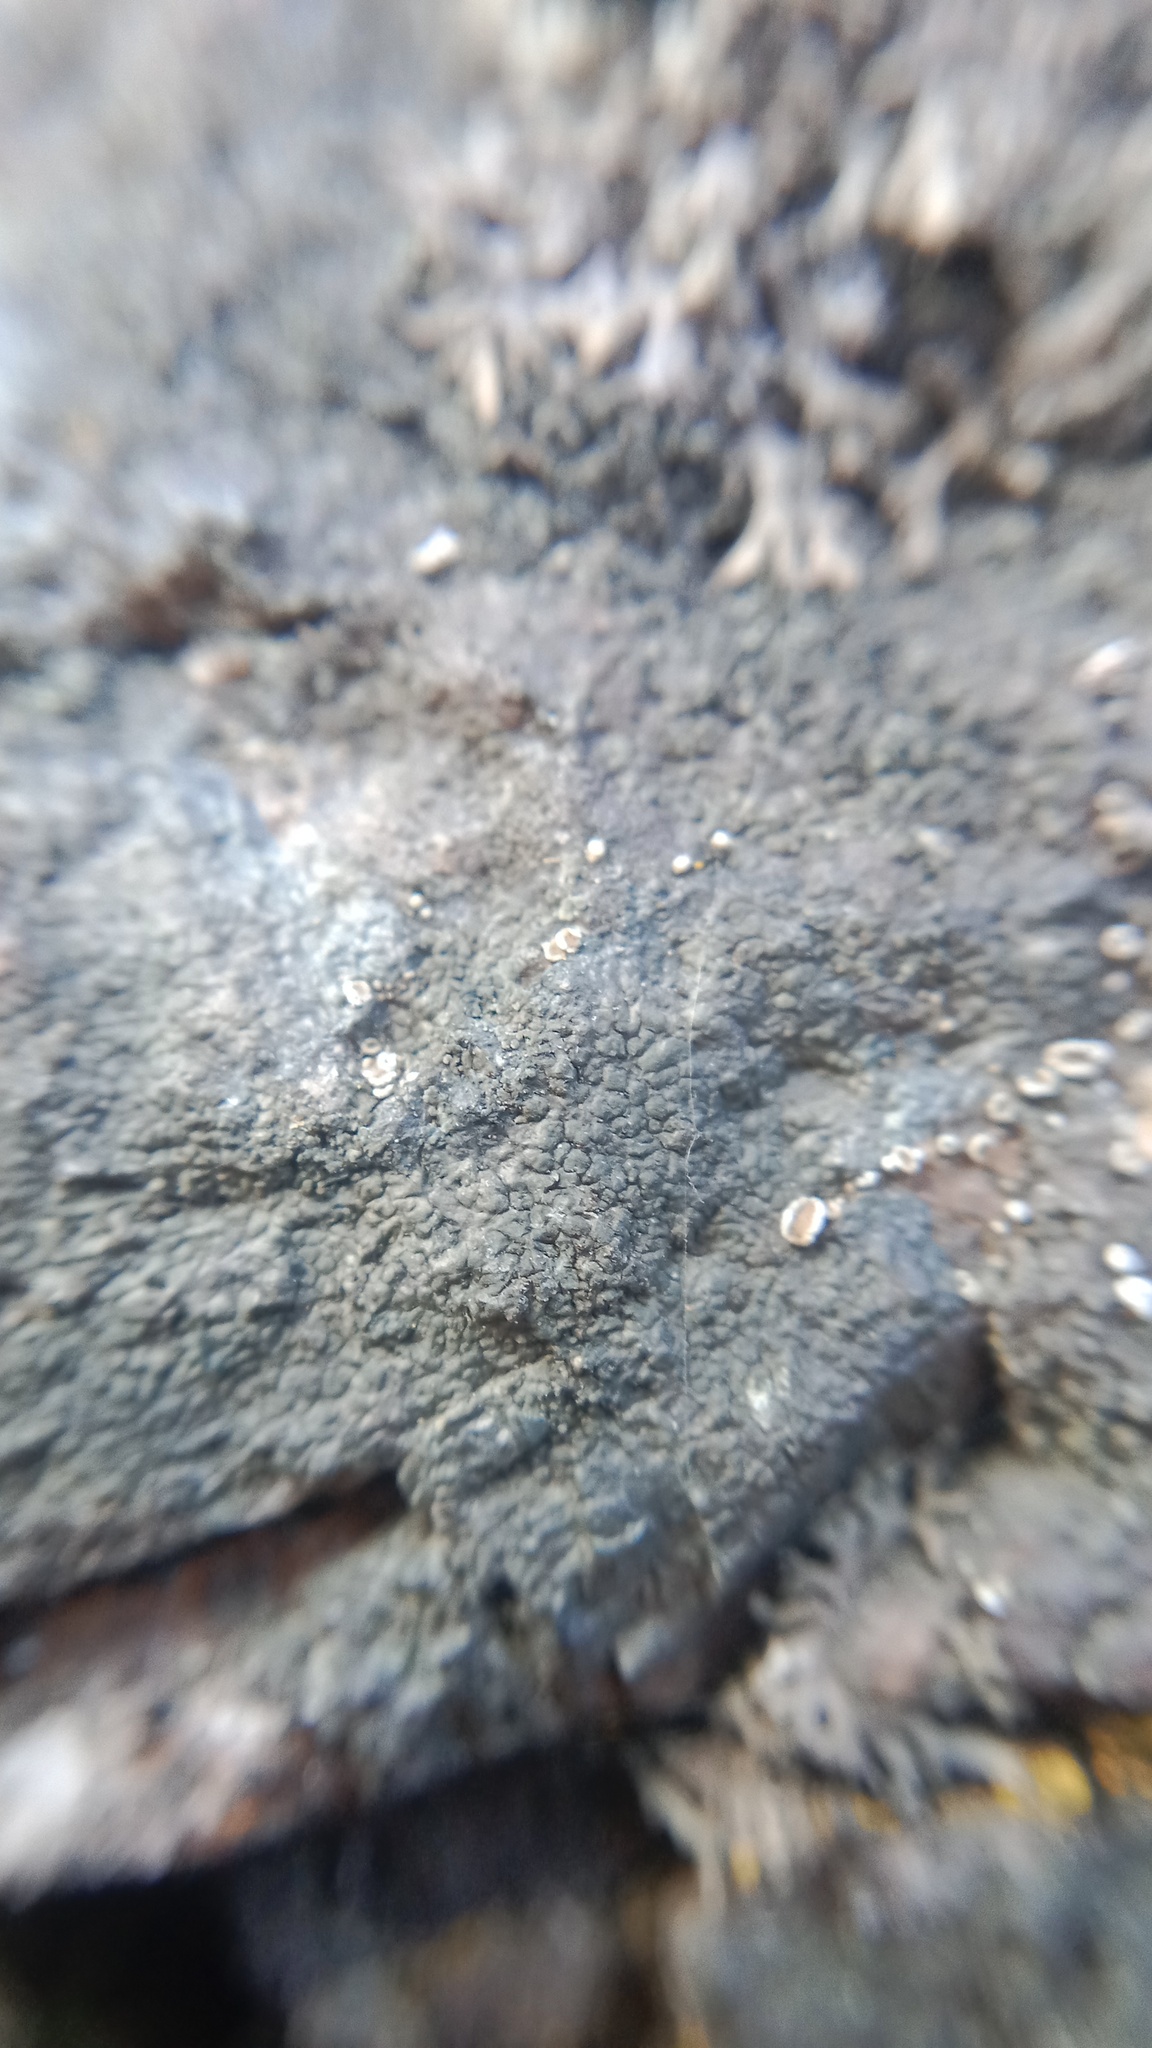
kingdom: Fungi
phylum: Ascomycota
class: Lecanoromycetes
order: Lecanorales
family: Lecanoraceae
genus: Polyozosia
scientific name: Polyozosia dispersa
